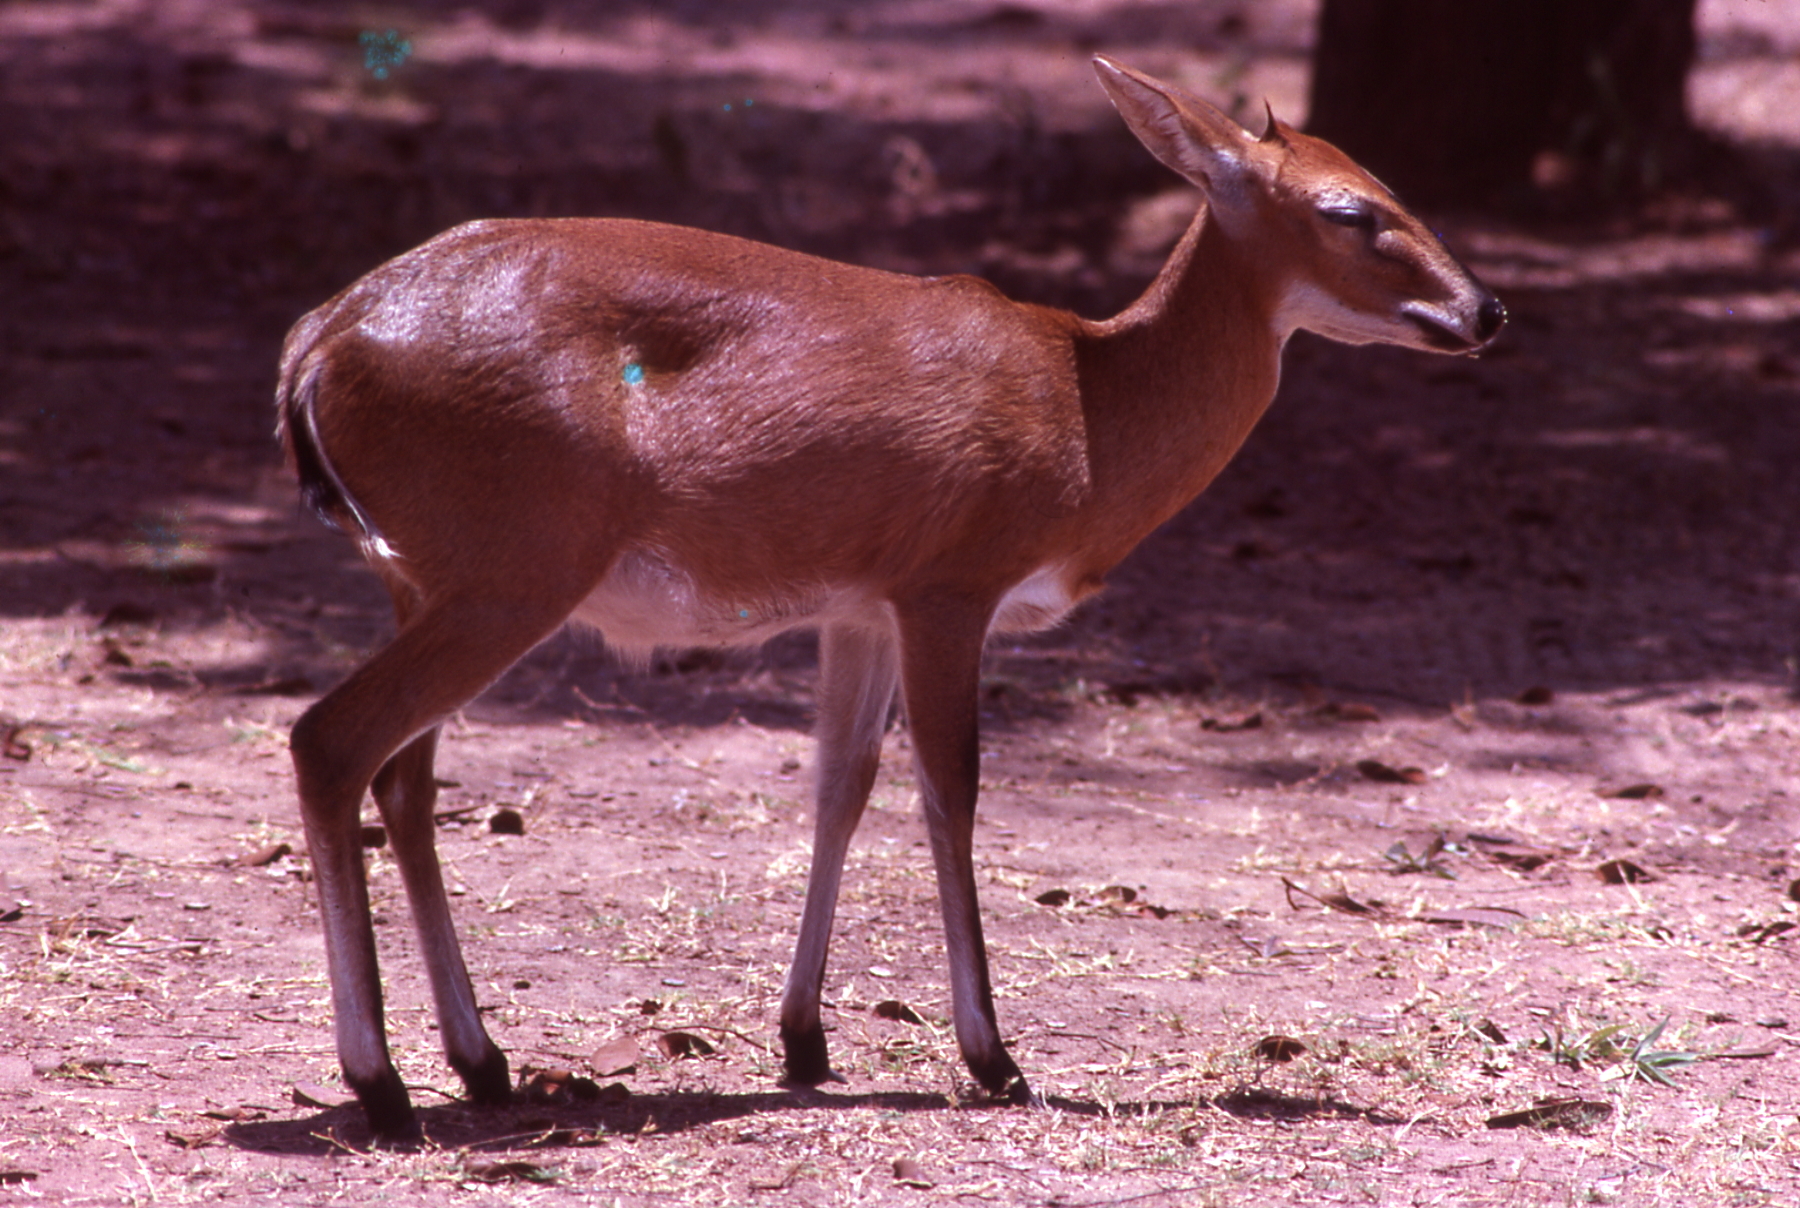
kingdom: Animalia
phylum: Chordata
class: Mammalia
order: Artiodactyla
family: Bovidae
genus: Sylvicapra
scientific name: Sylvicapra grimmia
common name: Bush duiker
